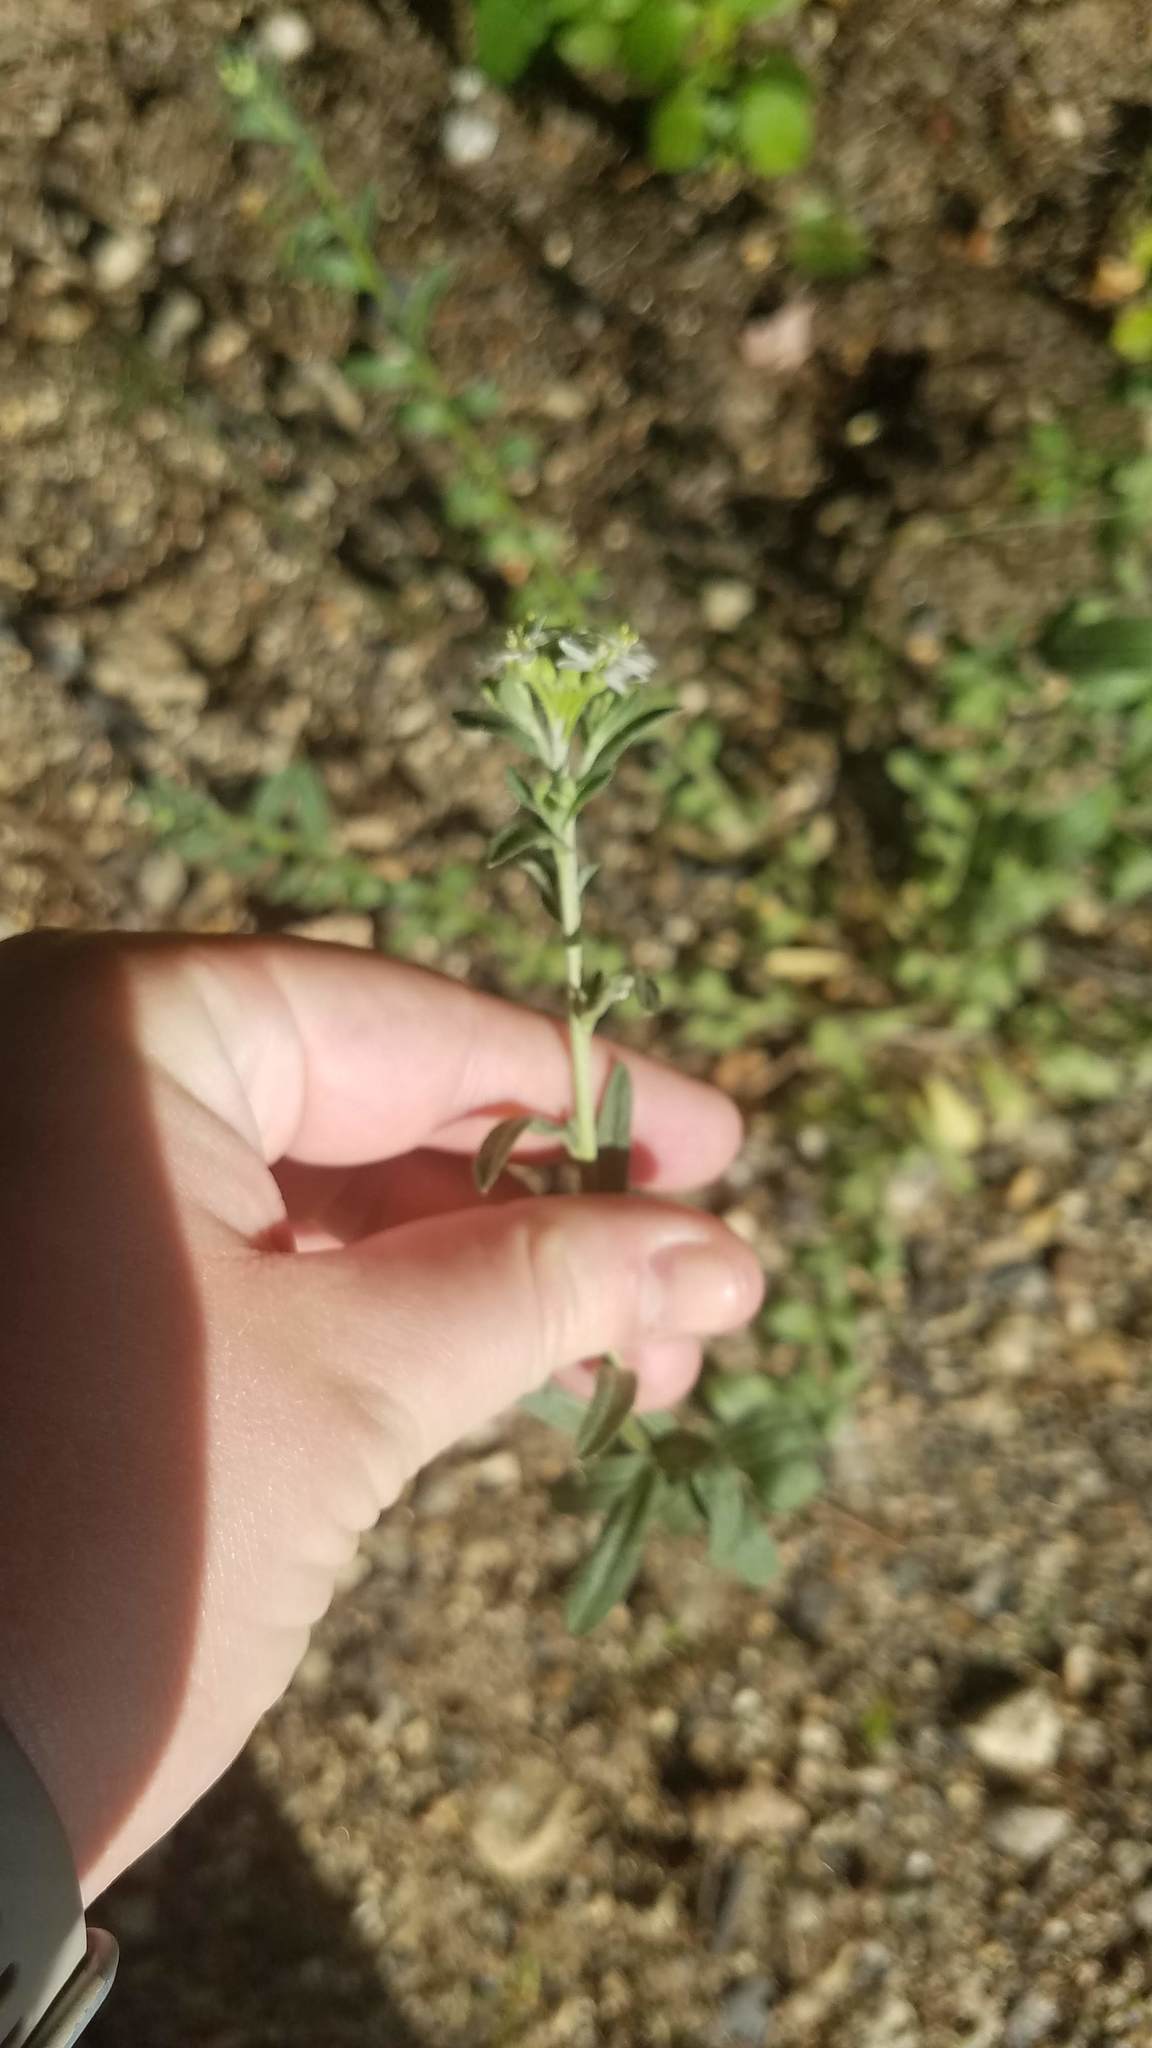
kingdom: Plantae
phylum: Tracheophyta
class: Magnoliopsida
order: Brassicales
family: Brassicaceae
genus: Berteroa
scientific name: Berteroa incana
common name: Hoary alison
